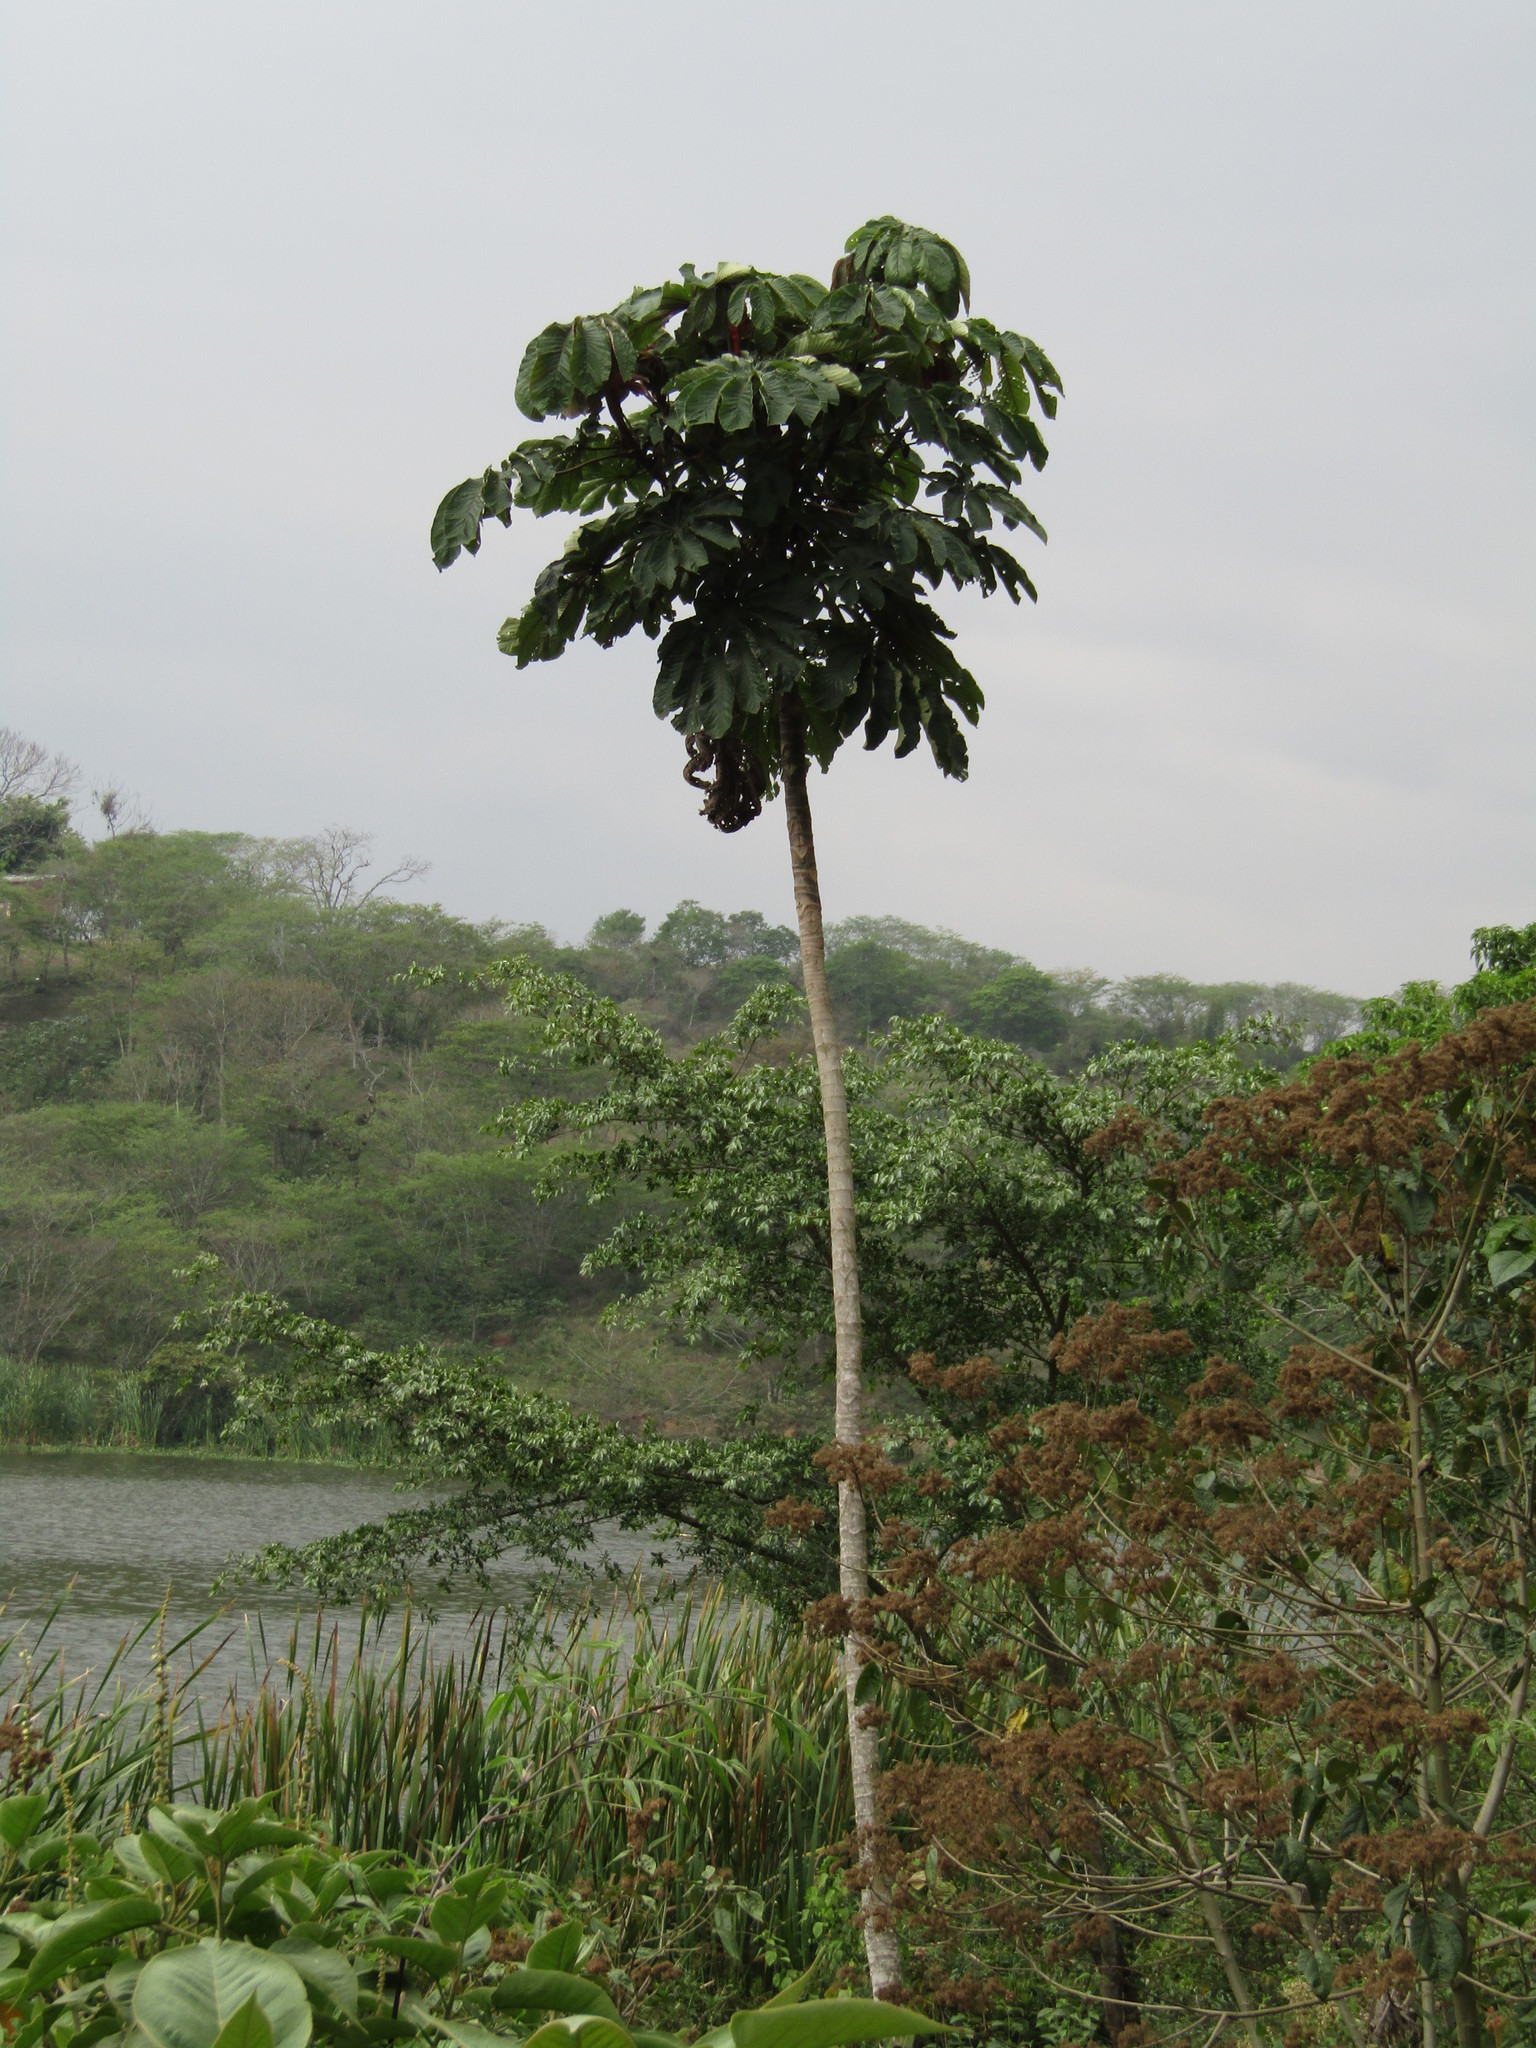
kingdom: Plantae
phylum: Tracheophyta
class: Magnoliopsida
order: Rosales
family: Urticaceae
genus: Cecropia
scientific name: Cecropia obtusifolia
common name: Trumpet tree
